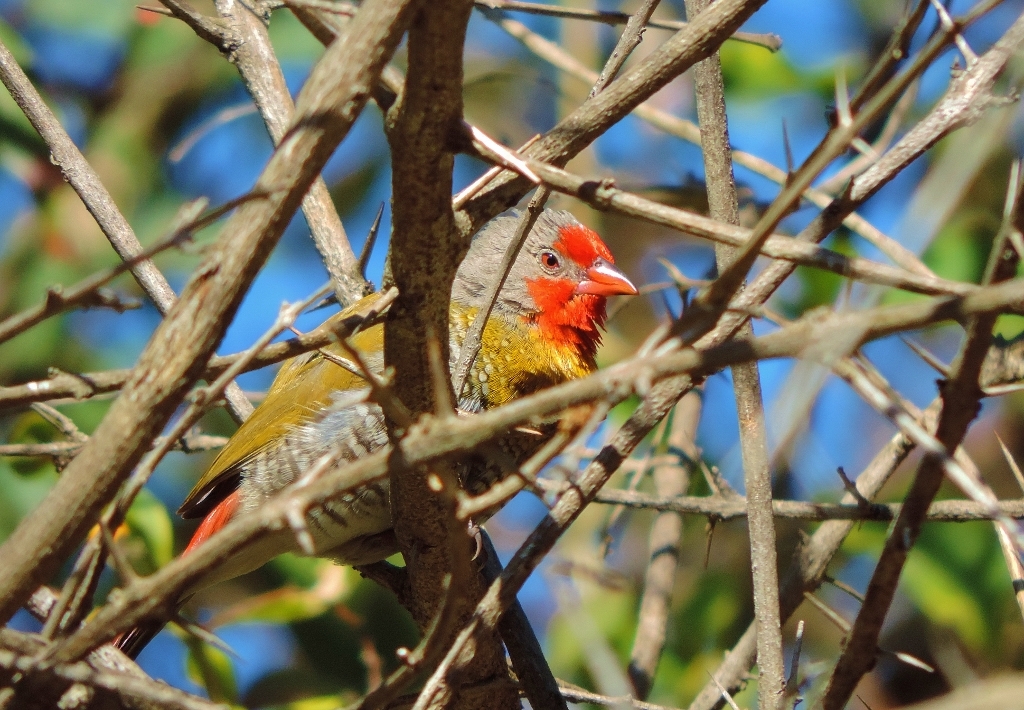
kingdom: Animalia
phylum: Chordata
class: Aves
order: Passeriformes
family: Estrildidae
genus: Pytilia
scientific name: Pytilia melba
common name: Green-winged pytilia
